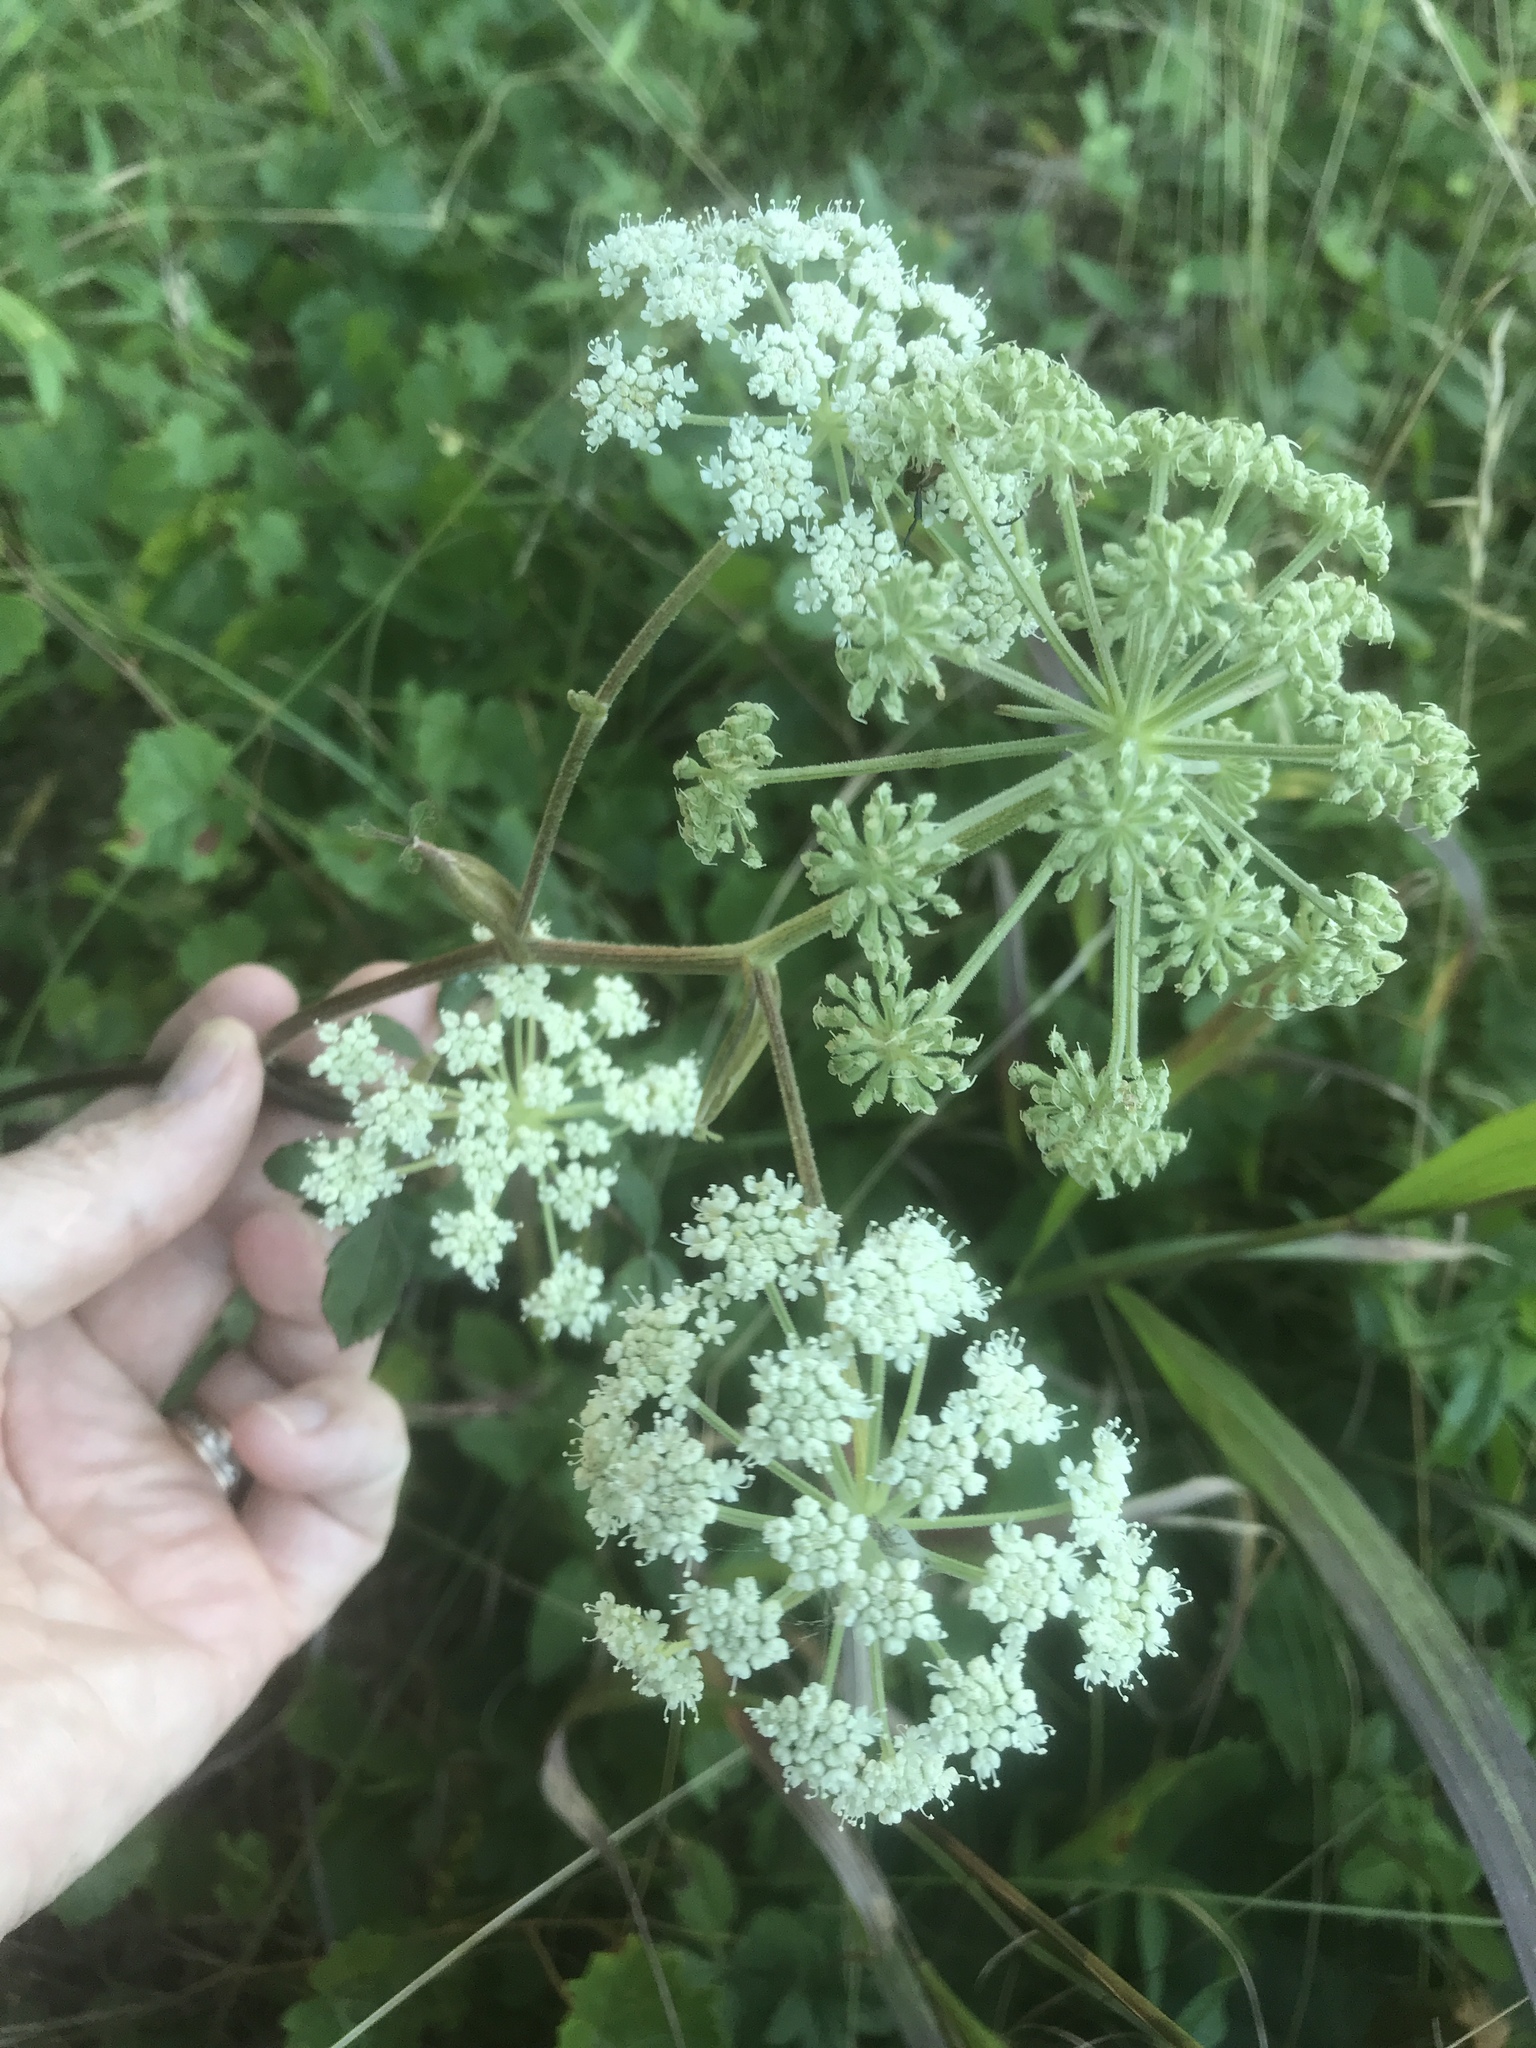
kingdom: Plantae
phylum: Tracheophyta
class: Magnoliopsida
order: Apiales
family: Apiaceae
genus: Angelica
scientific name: Angelica venenosa
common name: Hairy angelica
